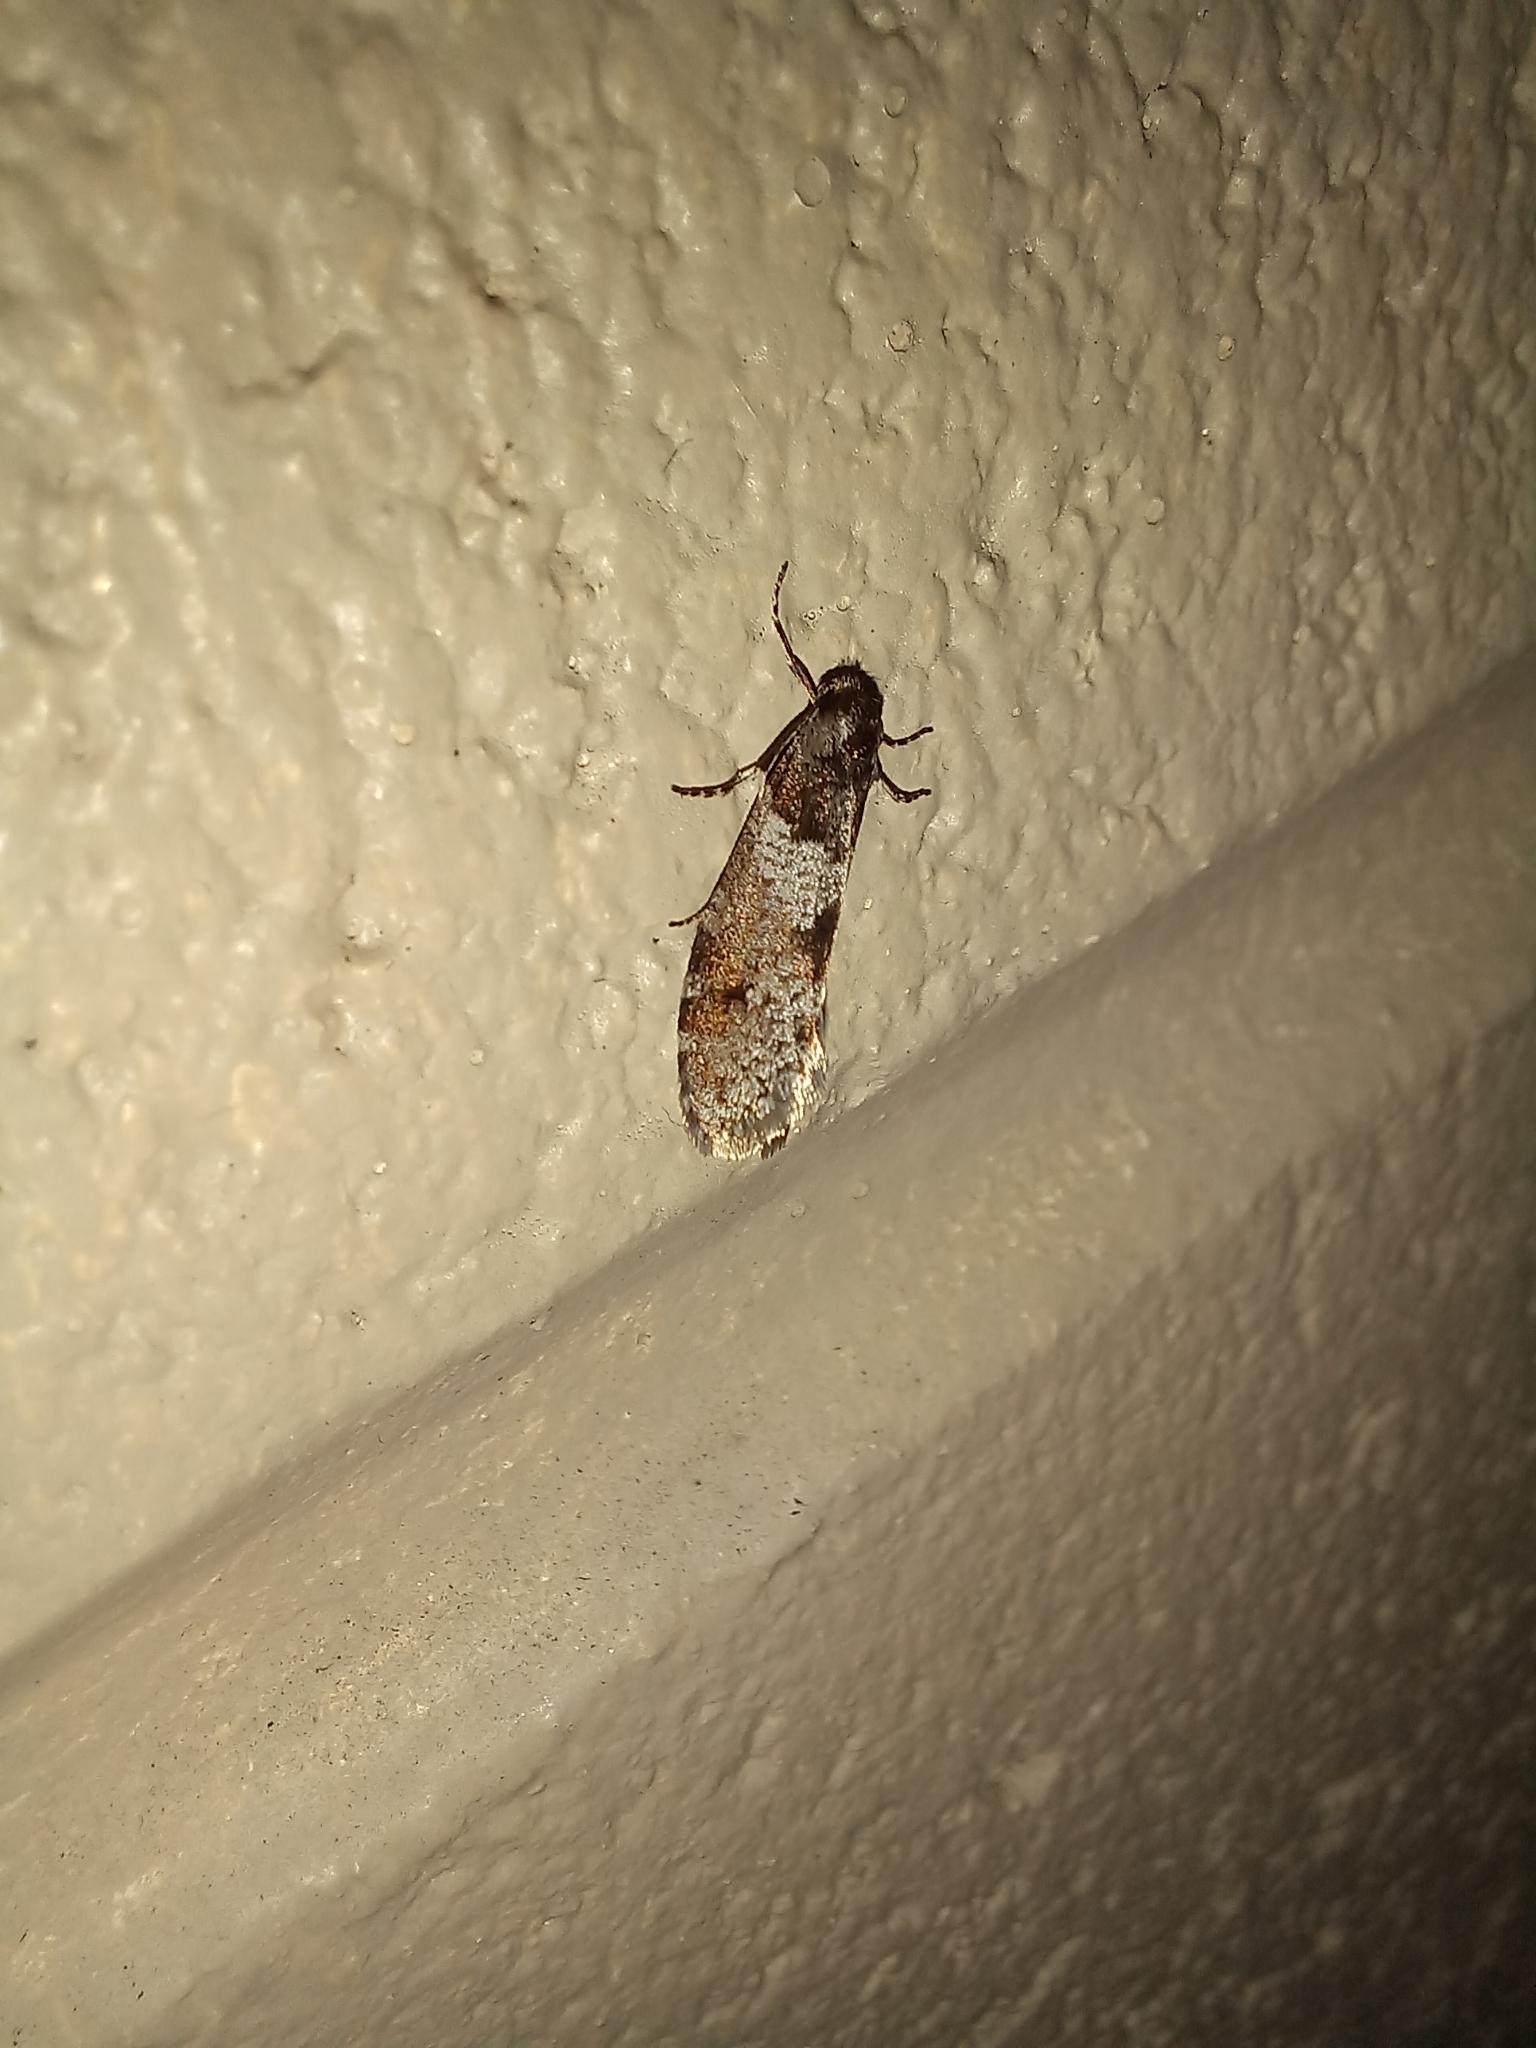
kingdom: Animalia
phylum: Arthropoda
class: Insecta
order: Lepidoptera
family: Psychidae
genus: Lepidoscia
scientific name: Lepidoscia heliochares
